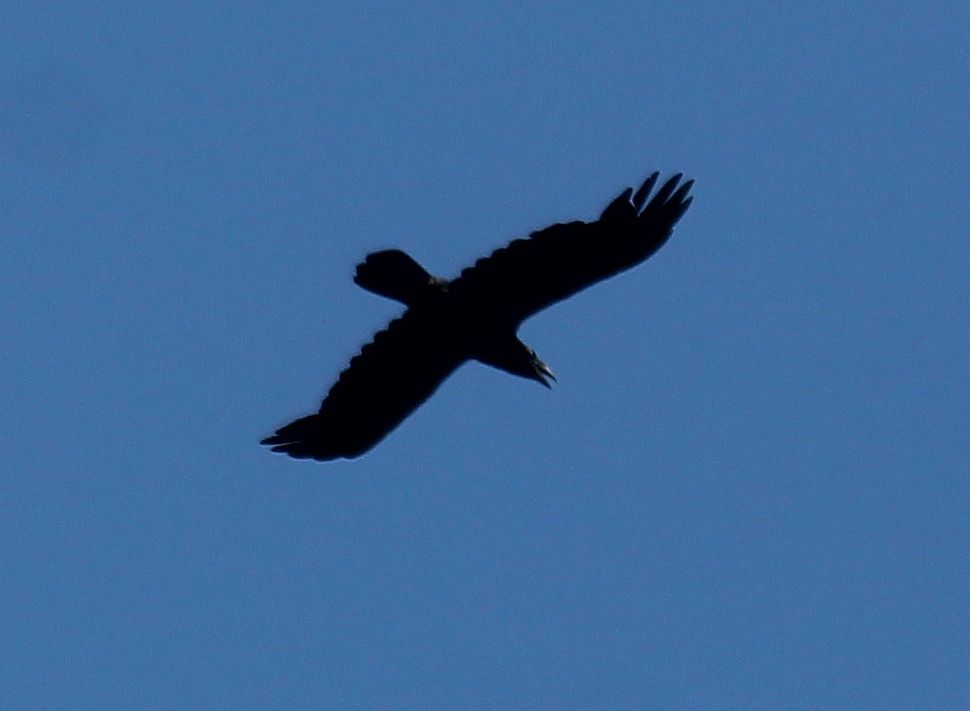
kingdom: Animalia
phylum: Chordata
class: Aves
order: Passeriformes
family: Corvidae
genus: Corvus
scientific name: Corvus corax
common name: Common raven
